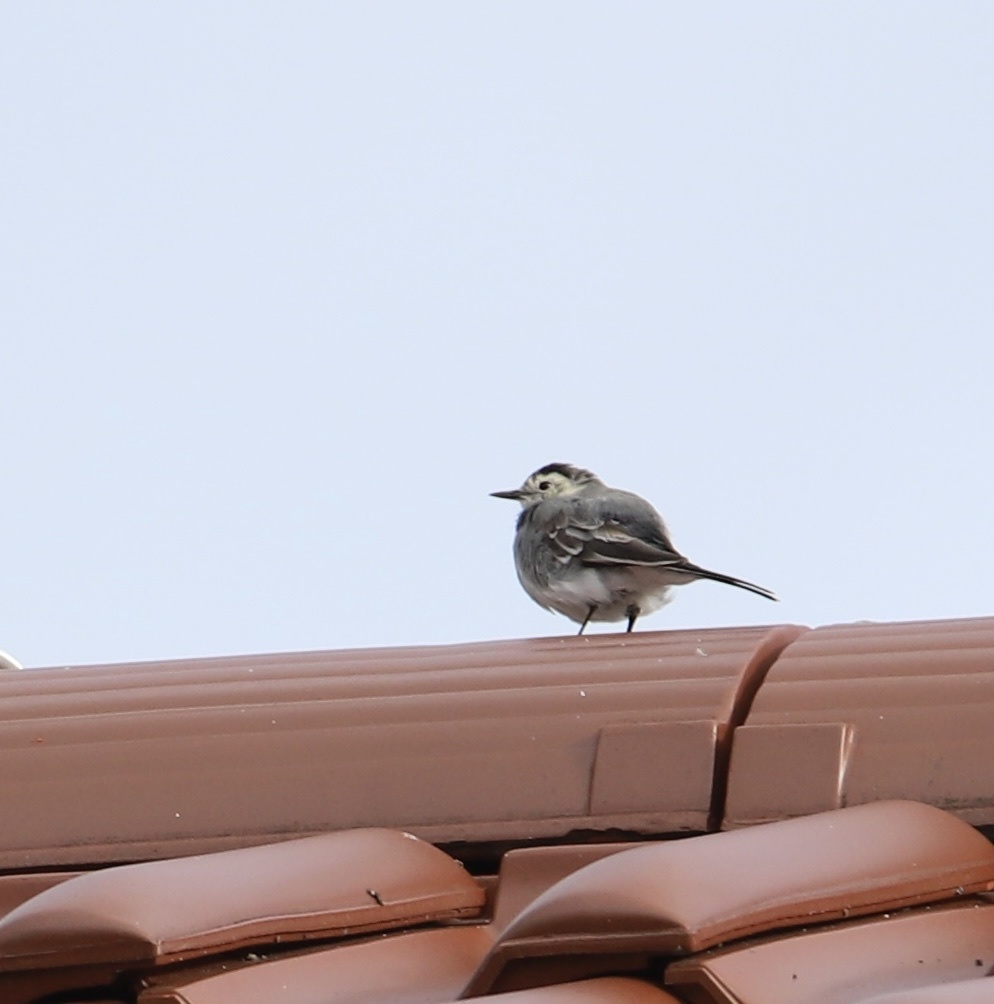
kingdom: Animalia
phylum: Chordata
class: Aves
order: Passeriformes
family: Motacillidae
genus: Motacilla
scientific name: Motacilla alba
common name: White wagtail
